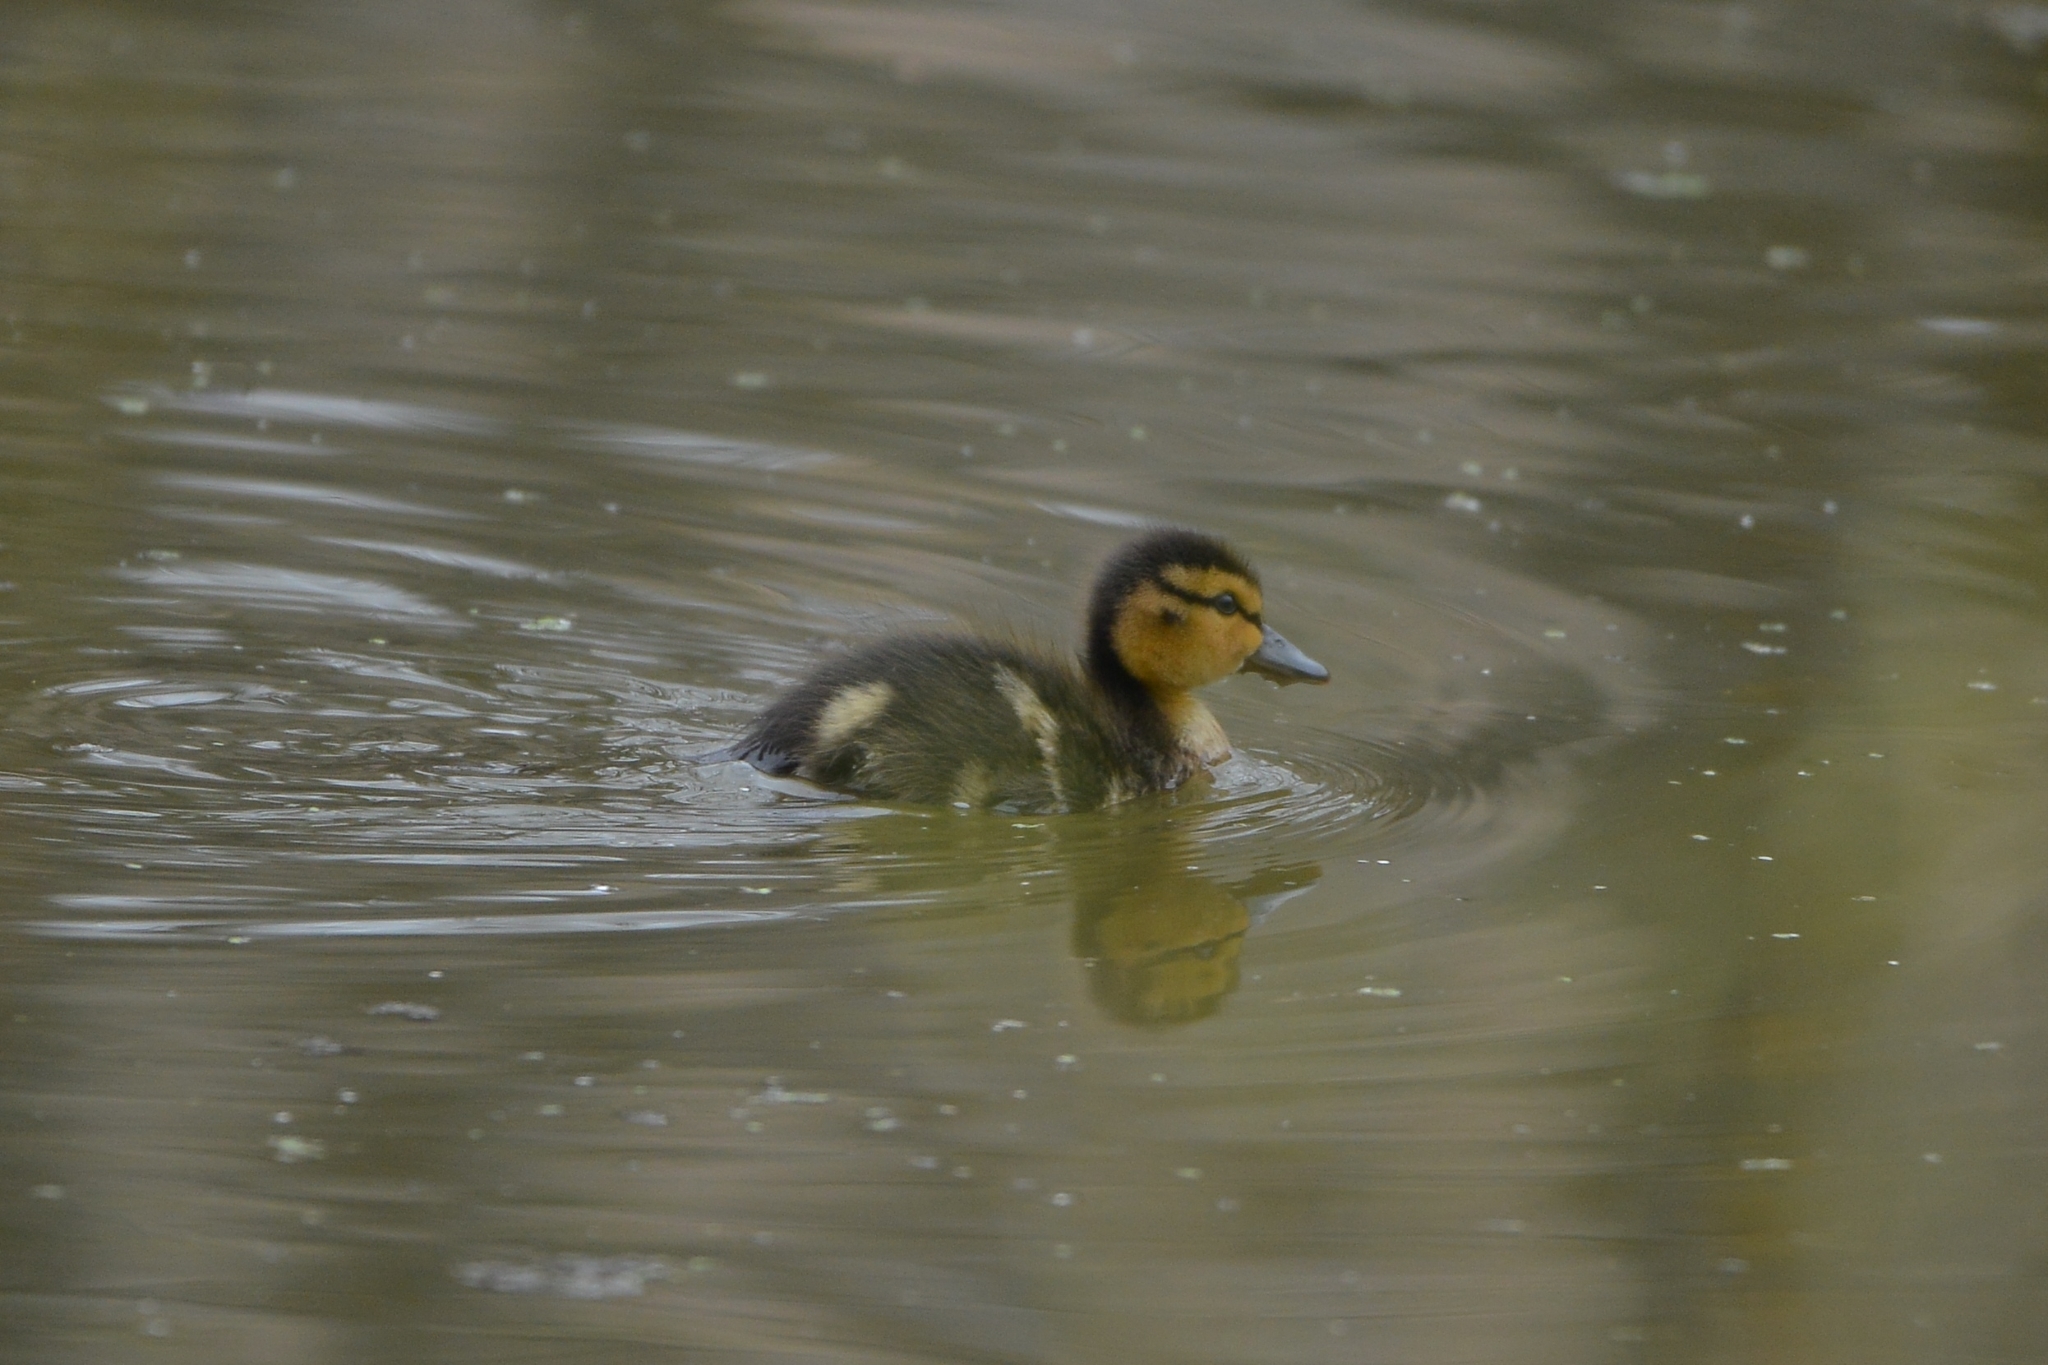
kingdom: Animalia
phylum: Chordata
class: Aves
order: Anseriformes
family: Anatidae
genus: Anas
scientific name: Anas platyrhynchos
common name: Mallard
